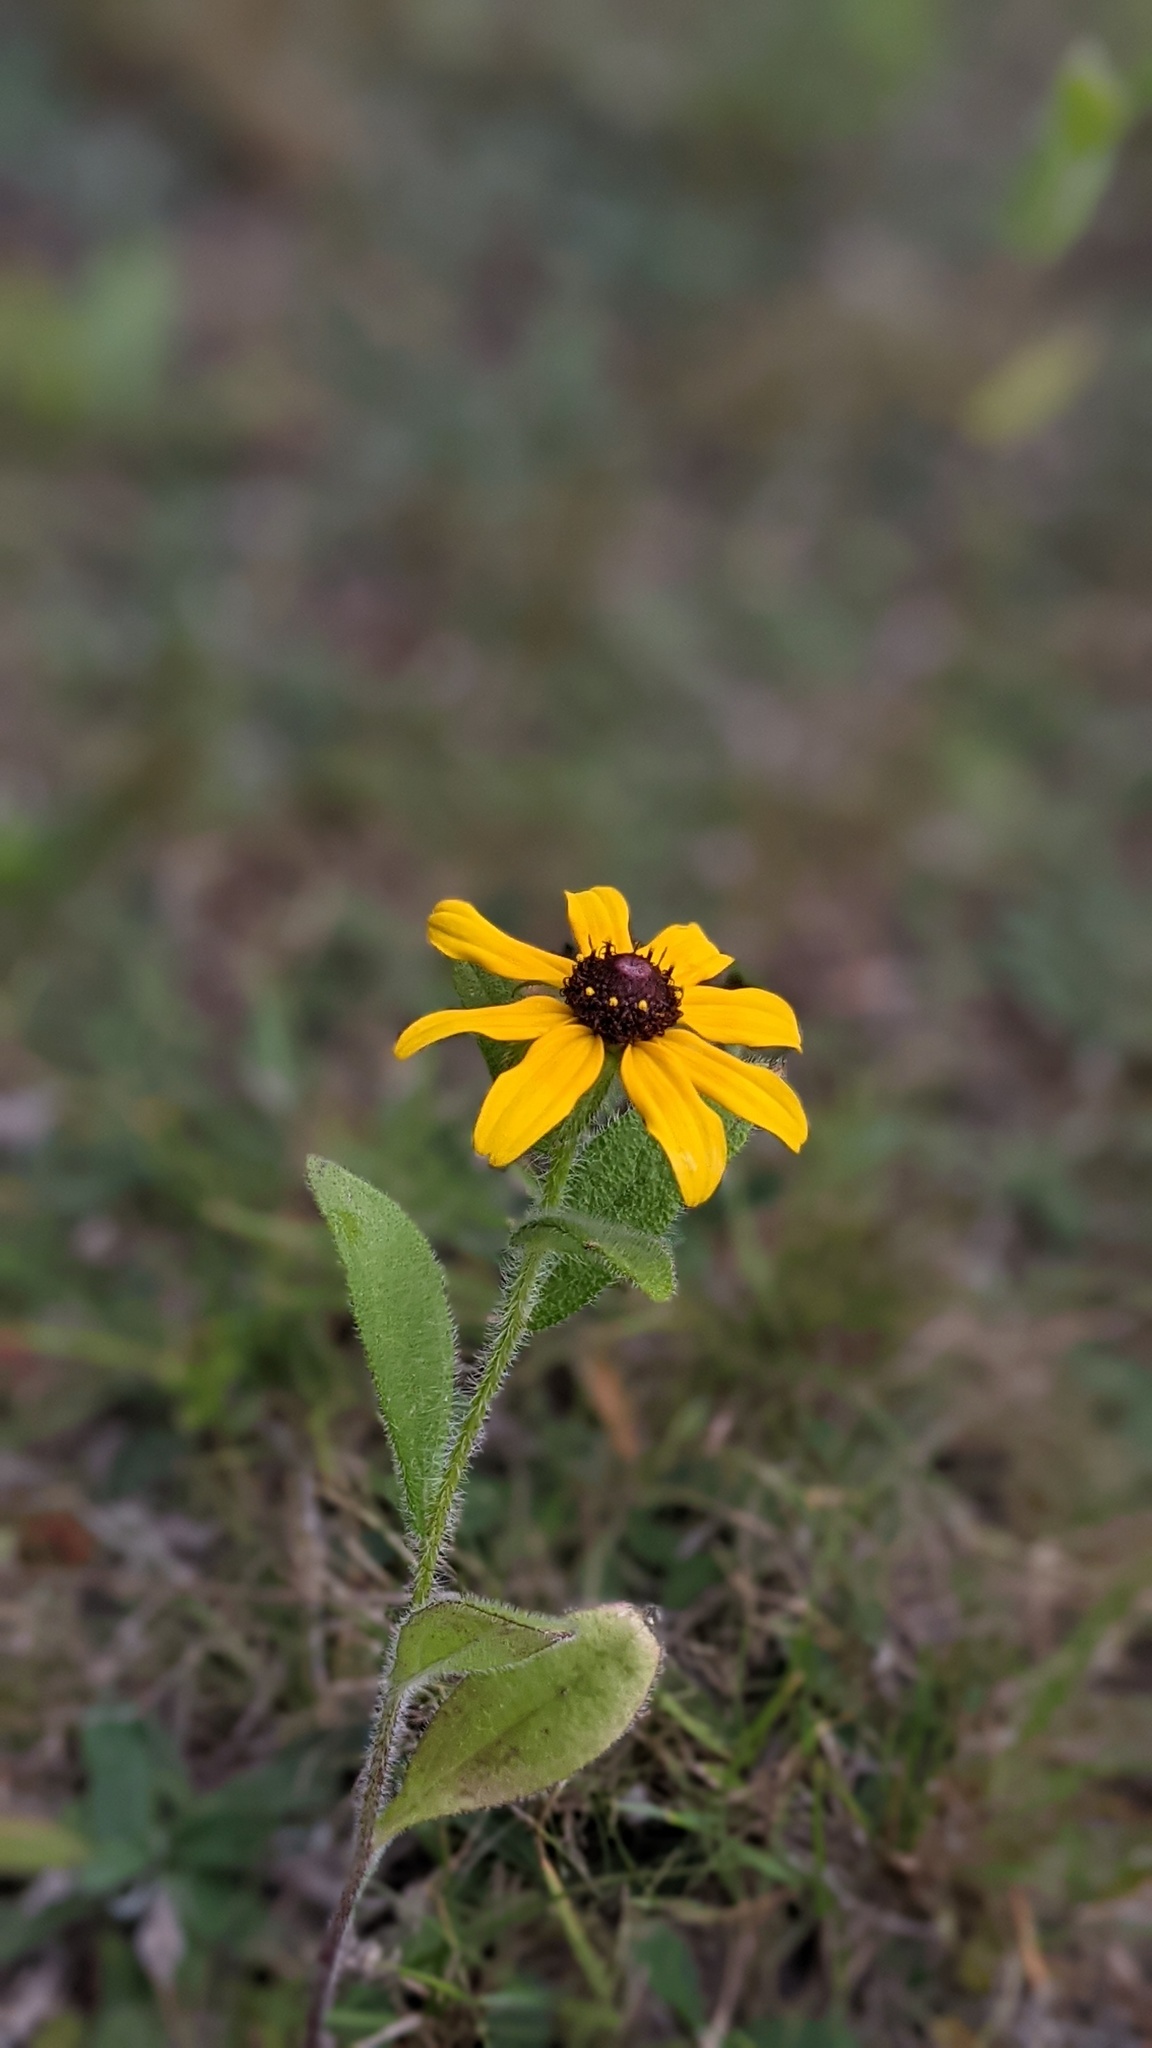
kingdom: Plantae
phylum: Tracheophyta
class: Magnoliopsida
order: Asterales
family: Asteraceae
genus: Rudbeckia
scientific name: Rudbeckia hirta
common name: Black-eyed-susan
